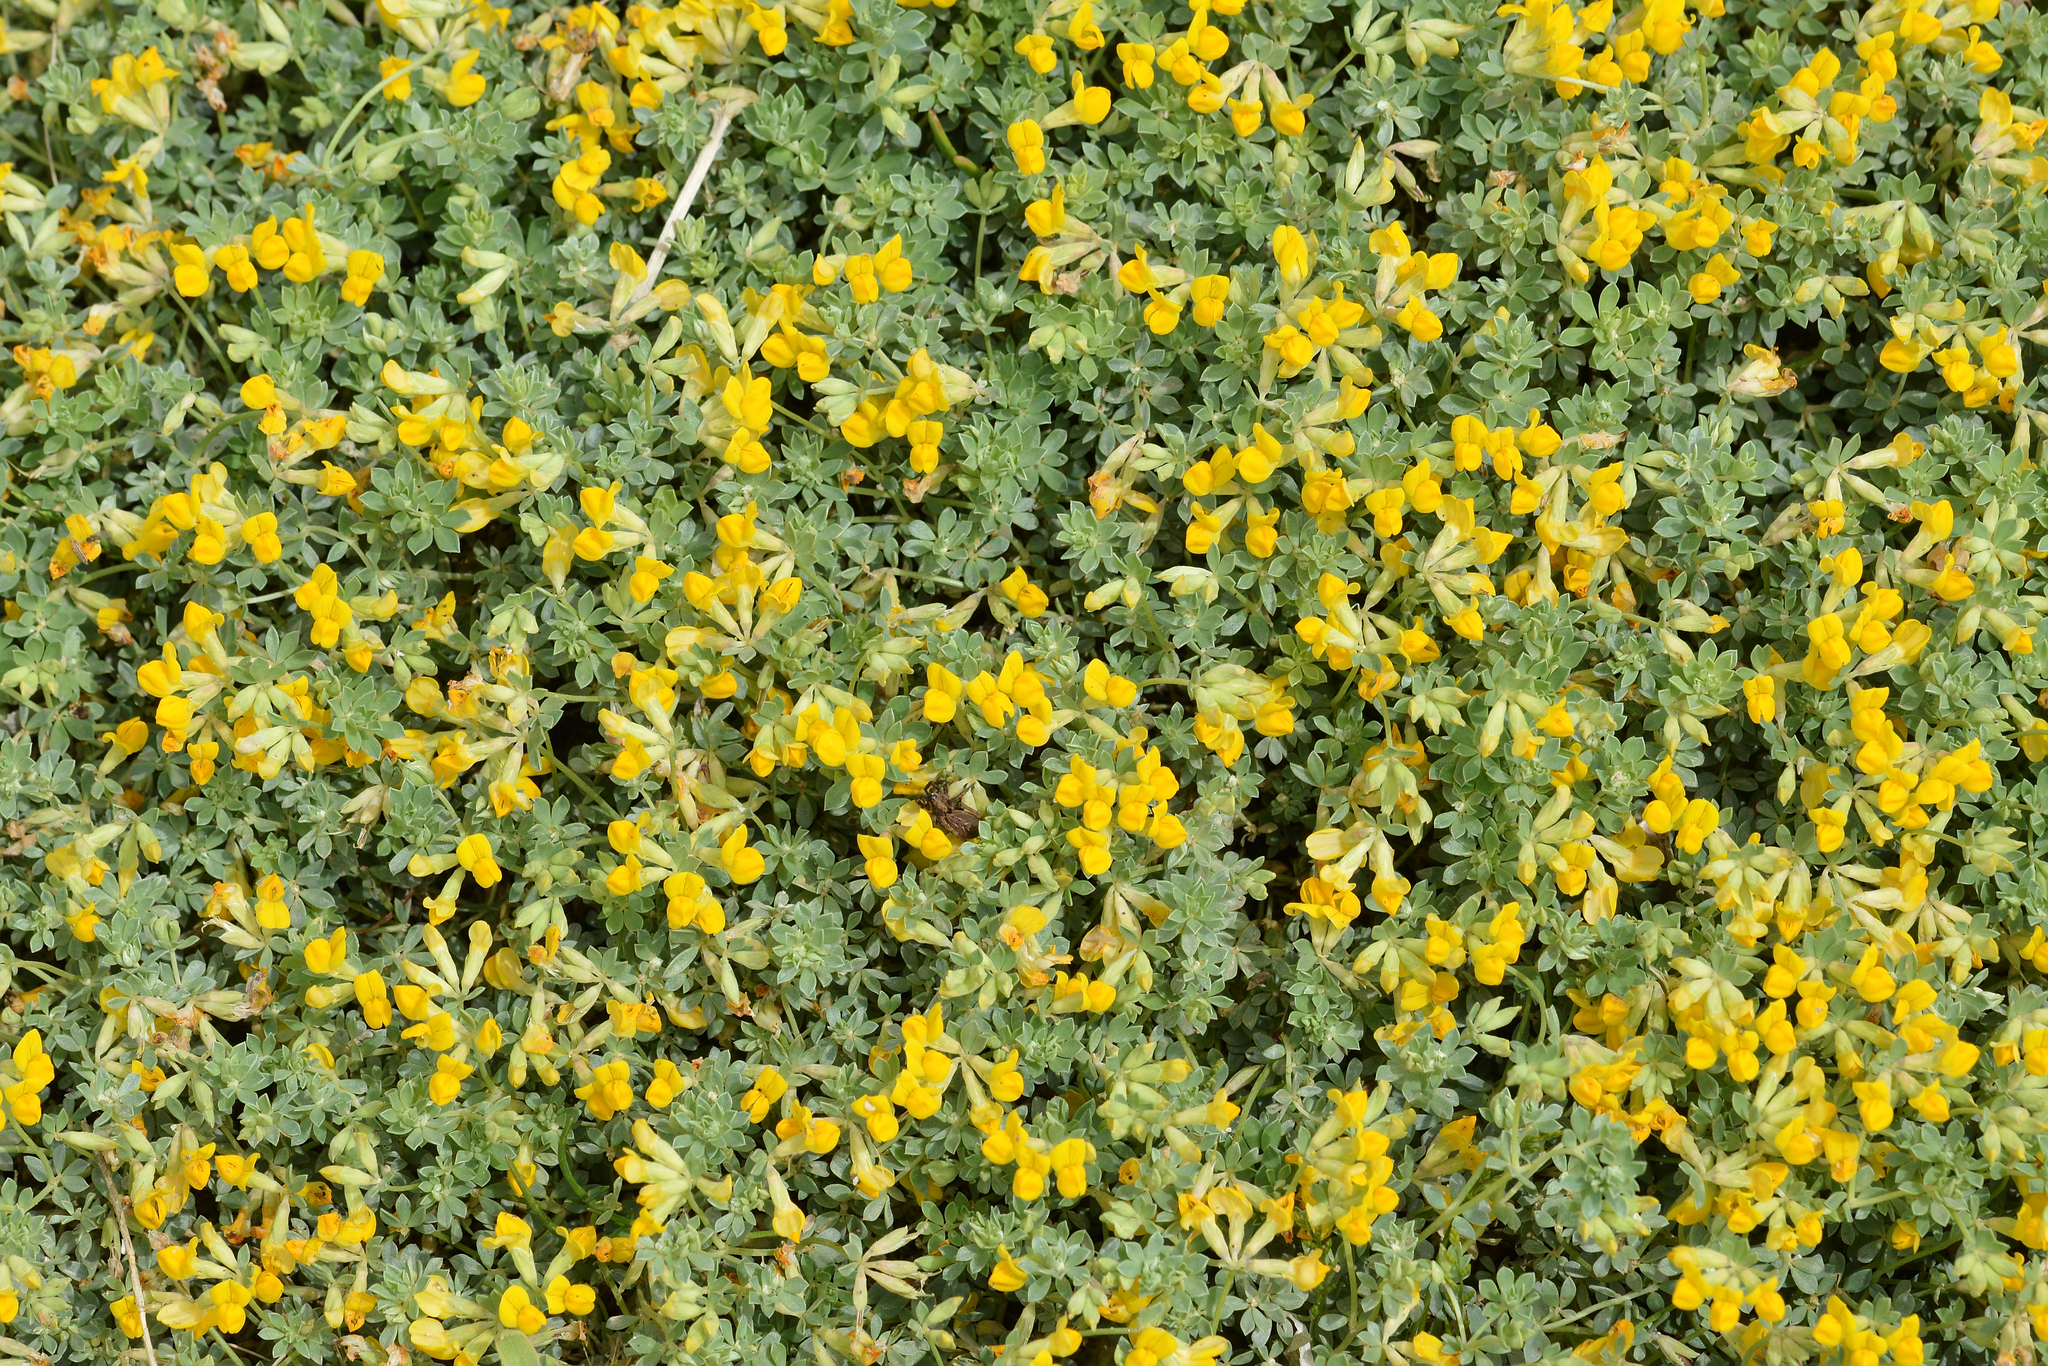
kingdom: Plantae
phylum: Tracheophyta
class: Magnoliopsida
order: Fabales
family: Fabaceae
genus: Lotus
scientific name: Lotus cytisoides
